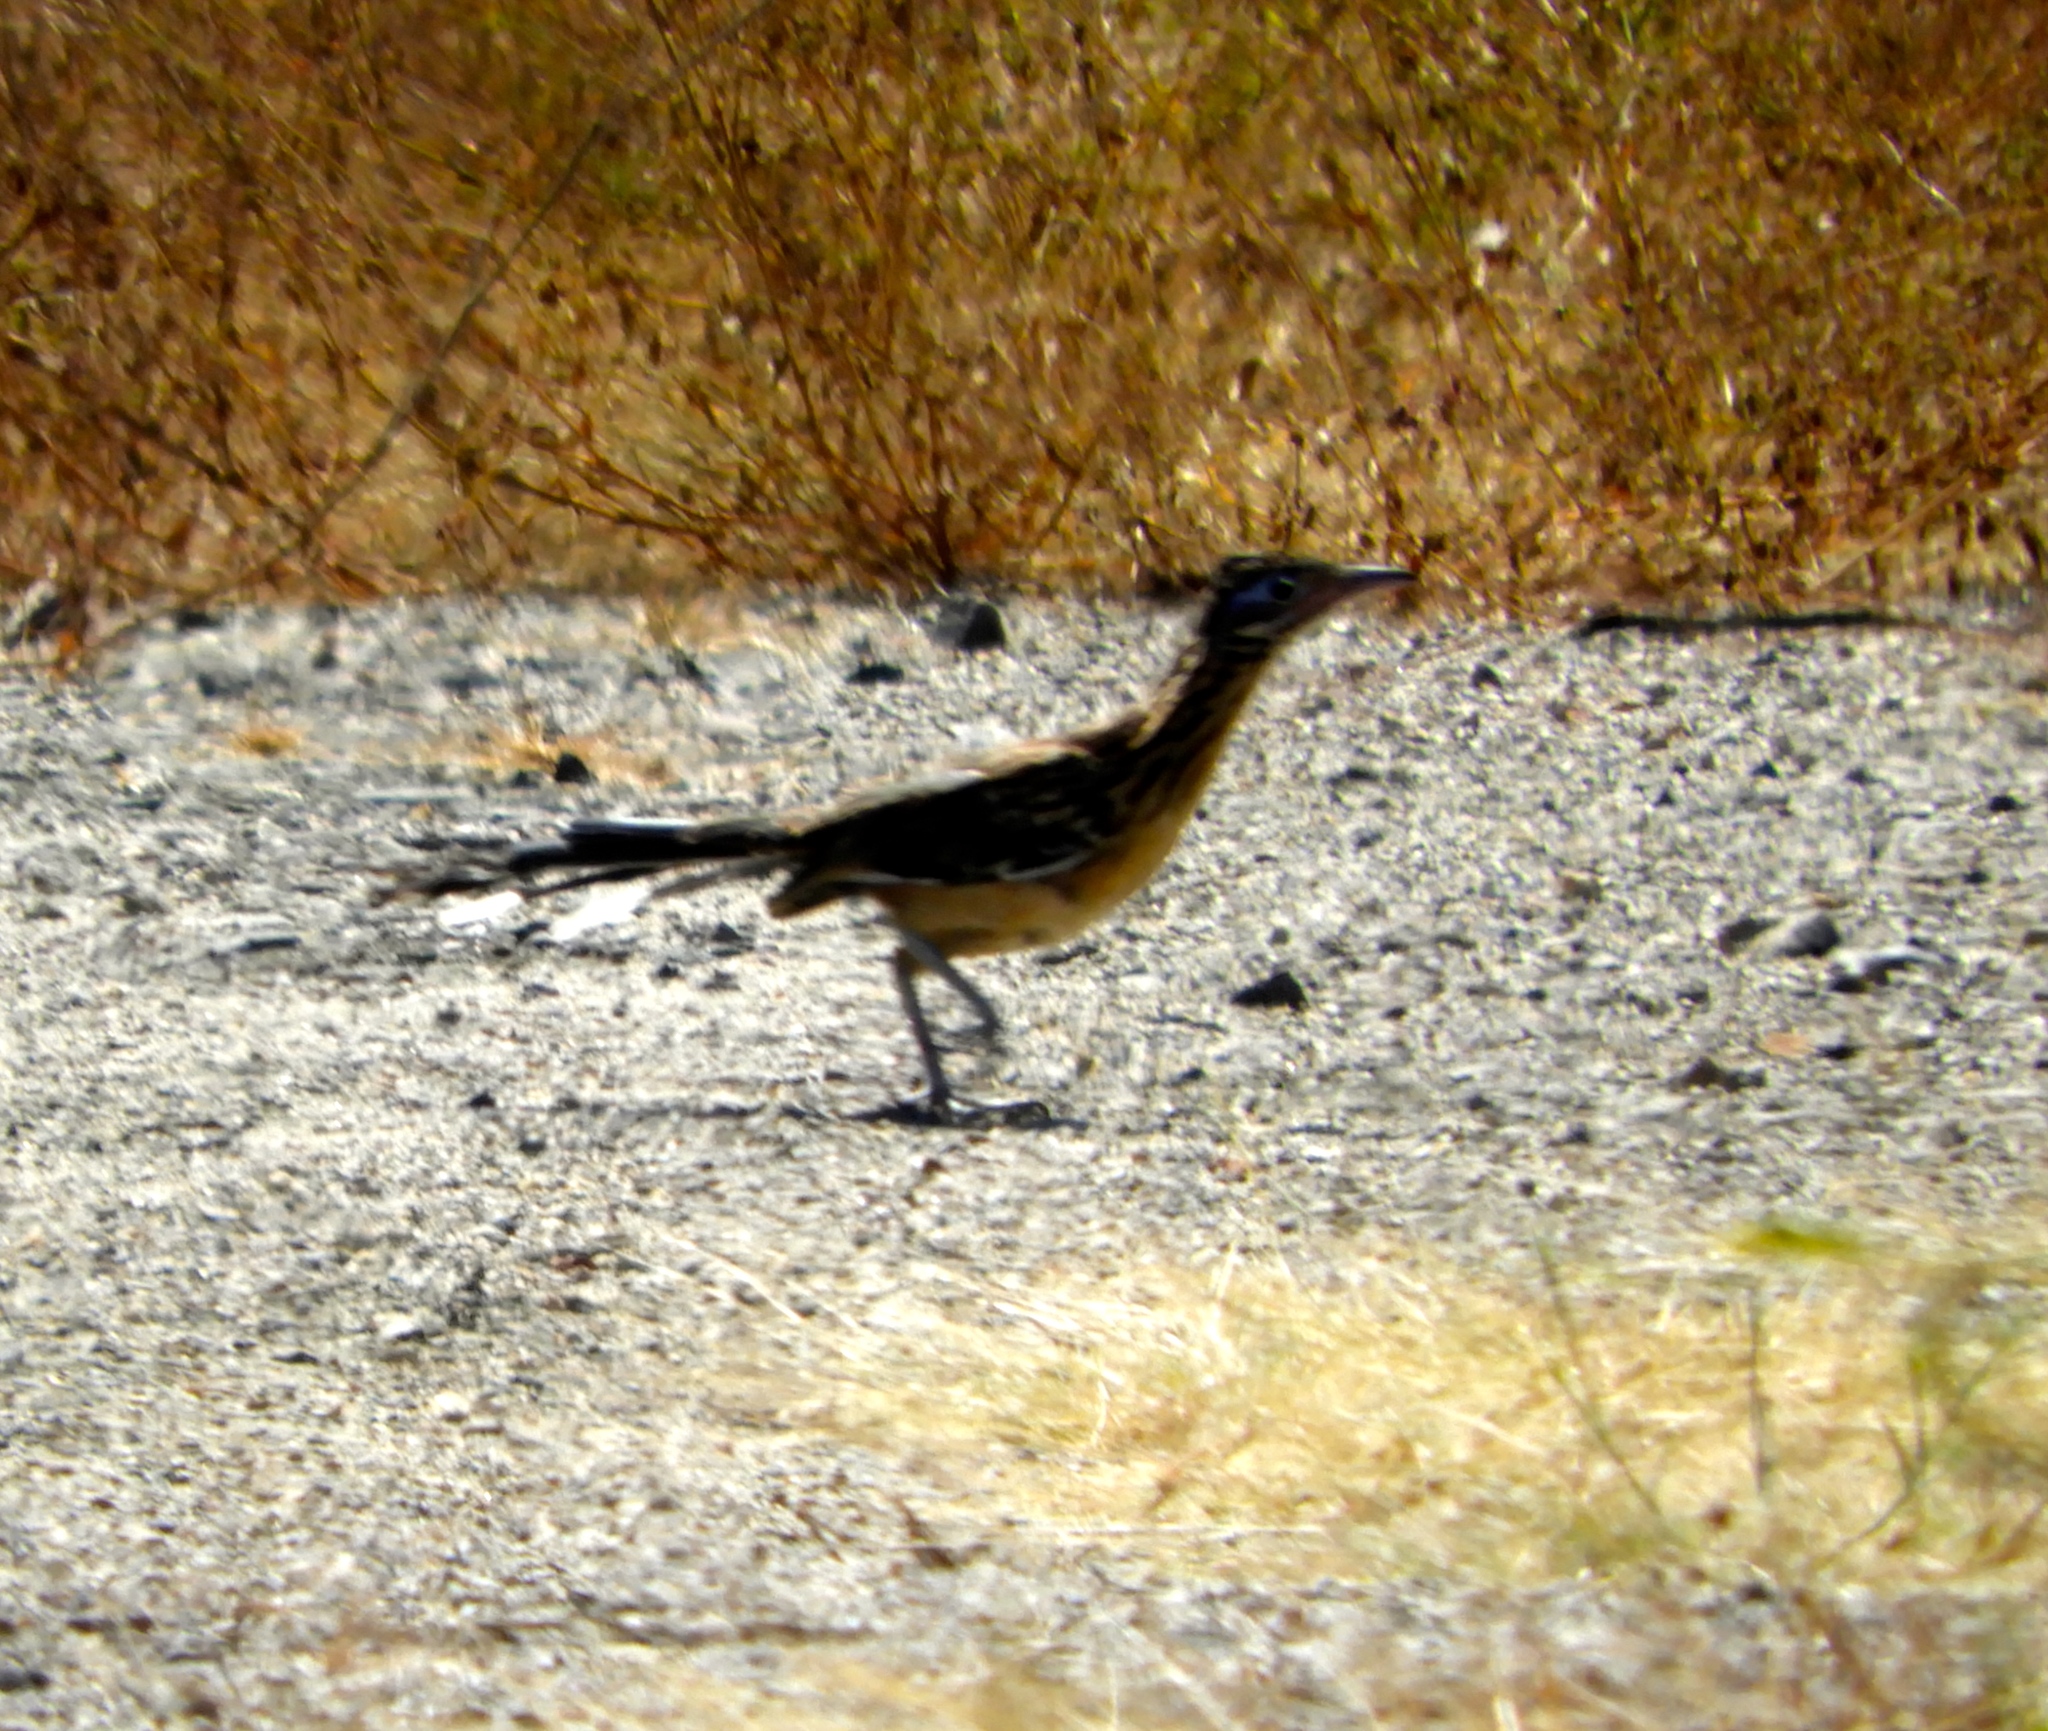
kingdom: Animalia
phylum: Chordata
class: Aves
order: Cuculiformes
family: Cuculidae
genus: Geococcyx
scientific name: Geococcyx velox
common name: Lesser roadrunner
